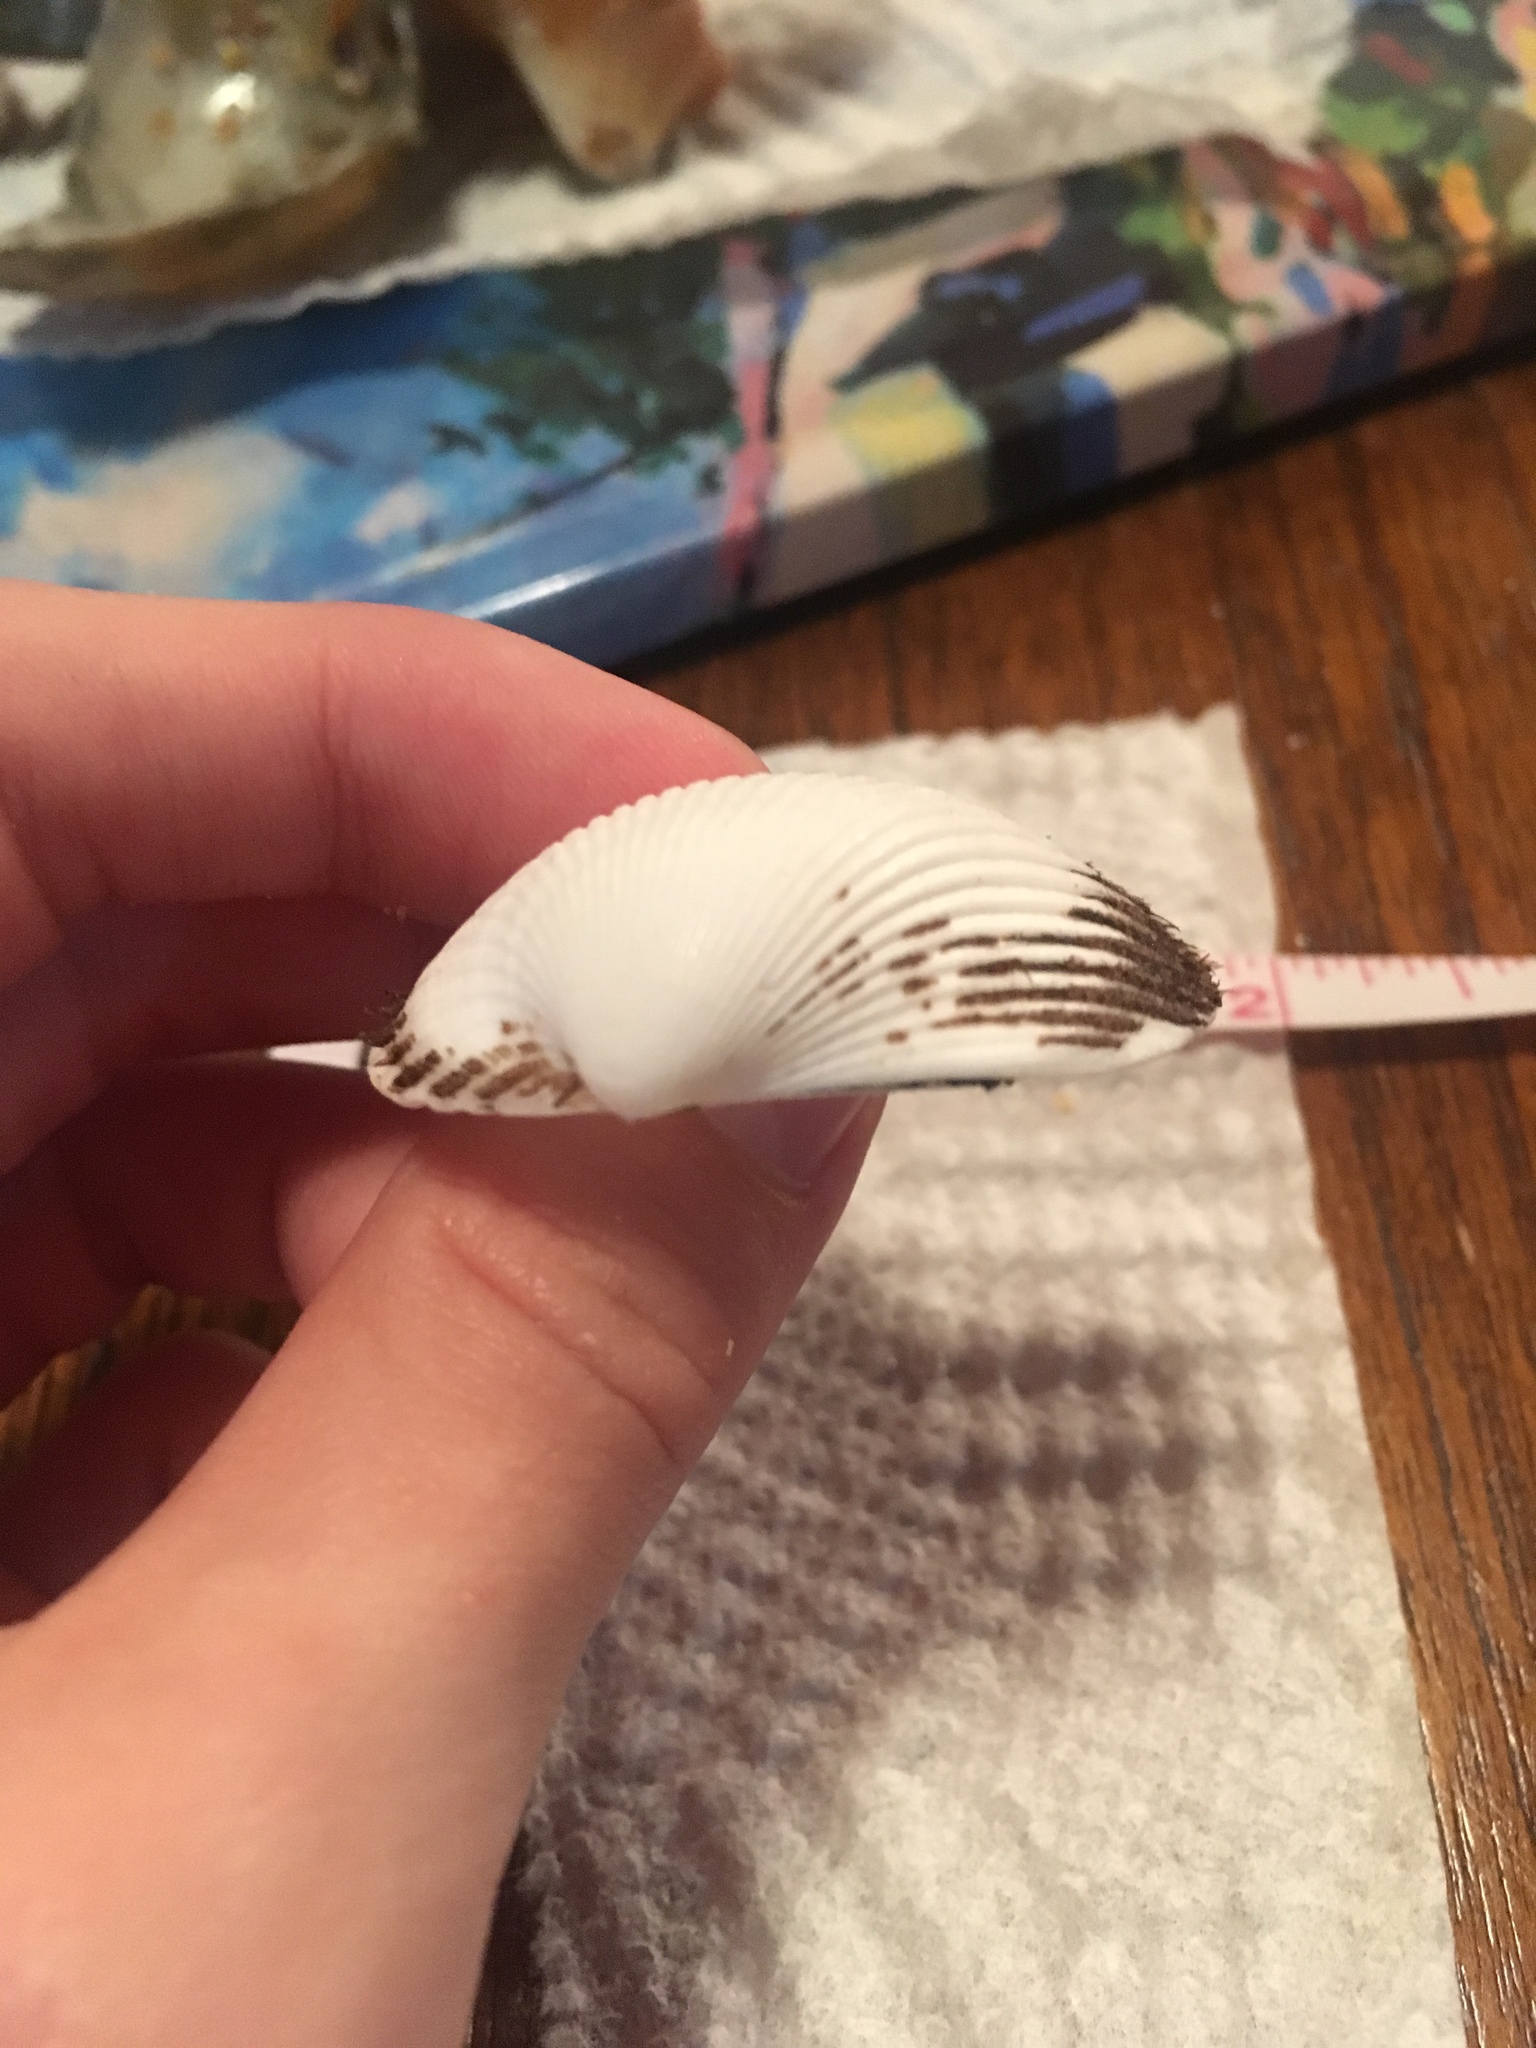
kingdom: Animalia
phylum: Mollusca
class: Bivalvia
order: Arcida
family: Arcidae
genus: Lunarca
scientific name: Lunarca ovalis
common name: Blood ark
